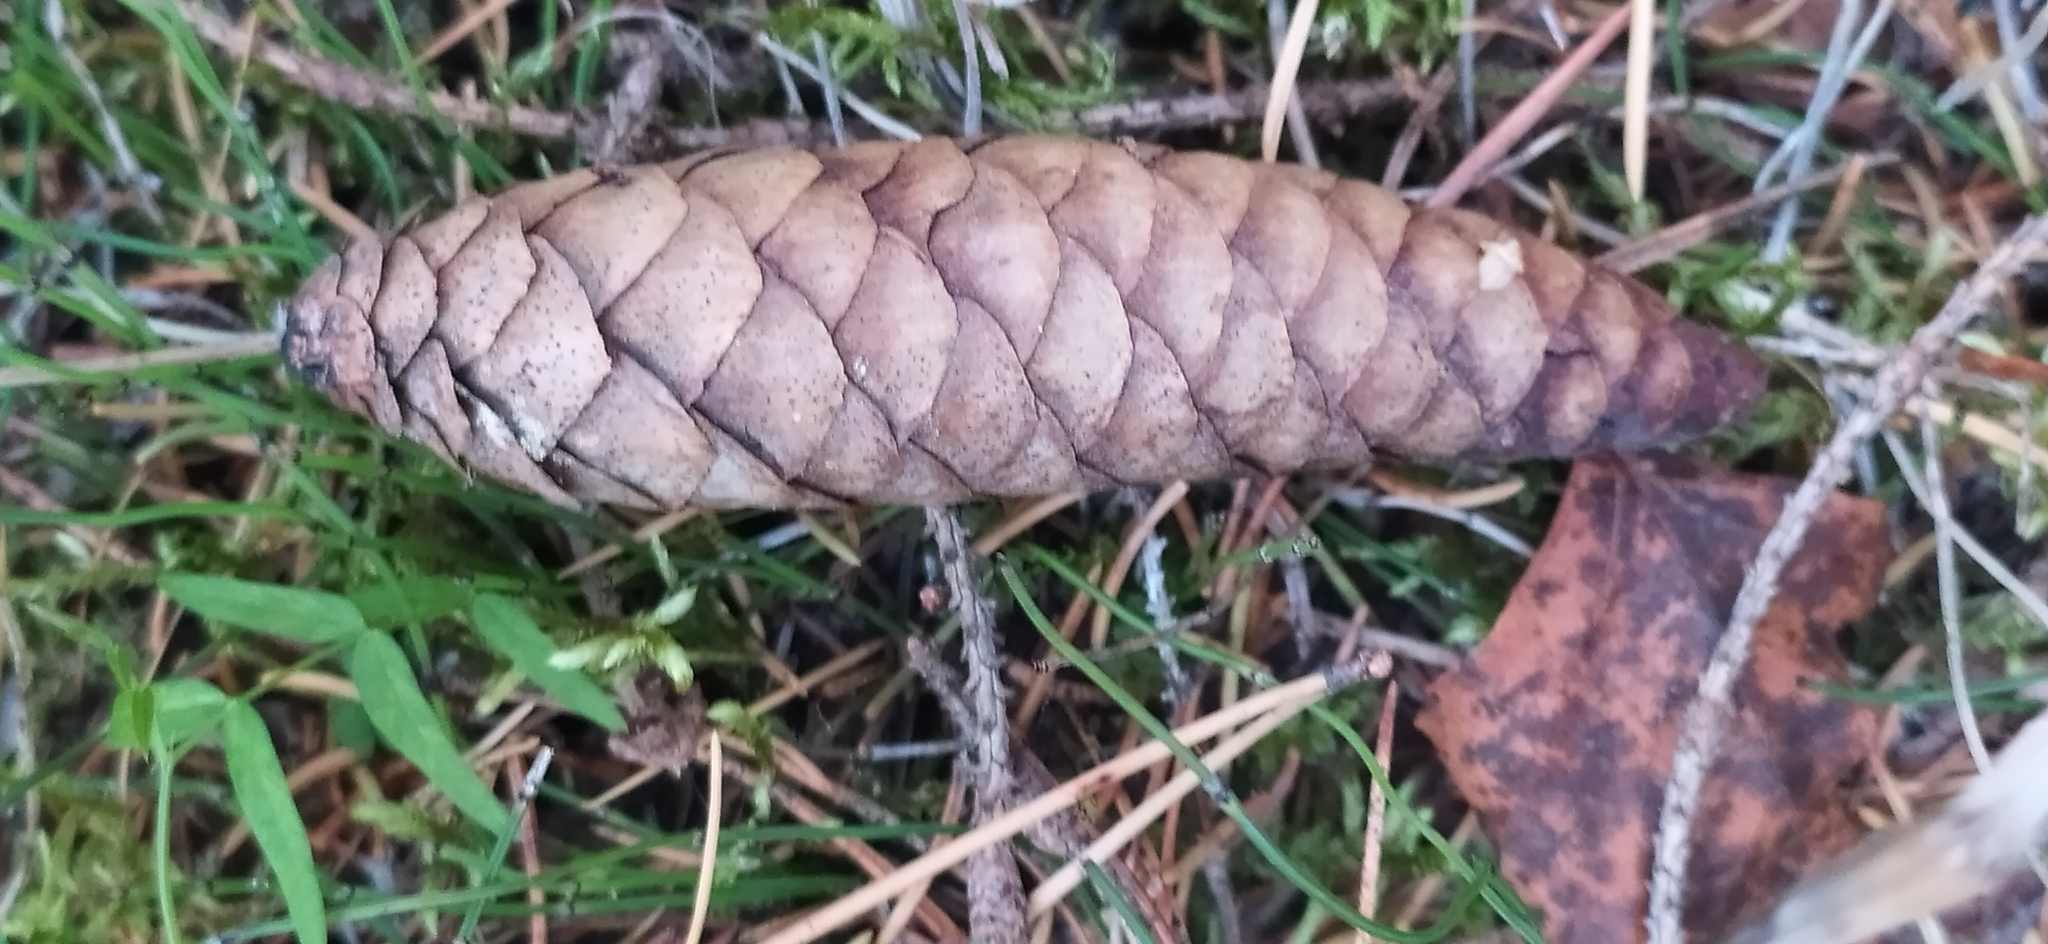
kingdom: Plantae
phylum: Tracheophyta
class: Pinopsida
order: Pinales
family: Pinaceae
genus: Picea
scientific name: Picea obovata
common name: Siberian spruce
